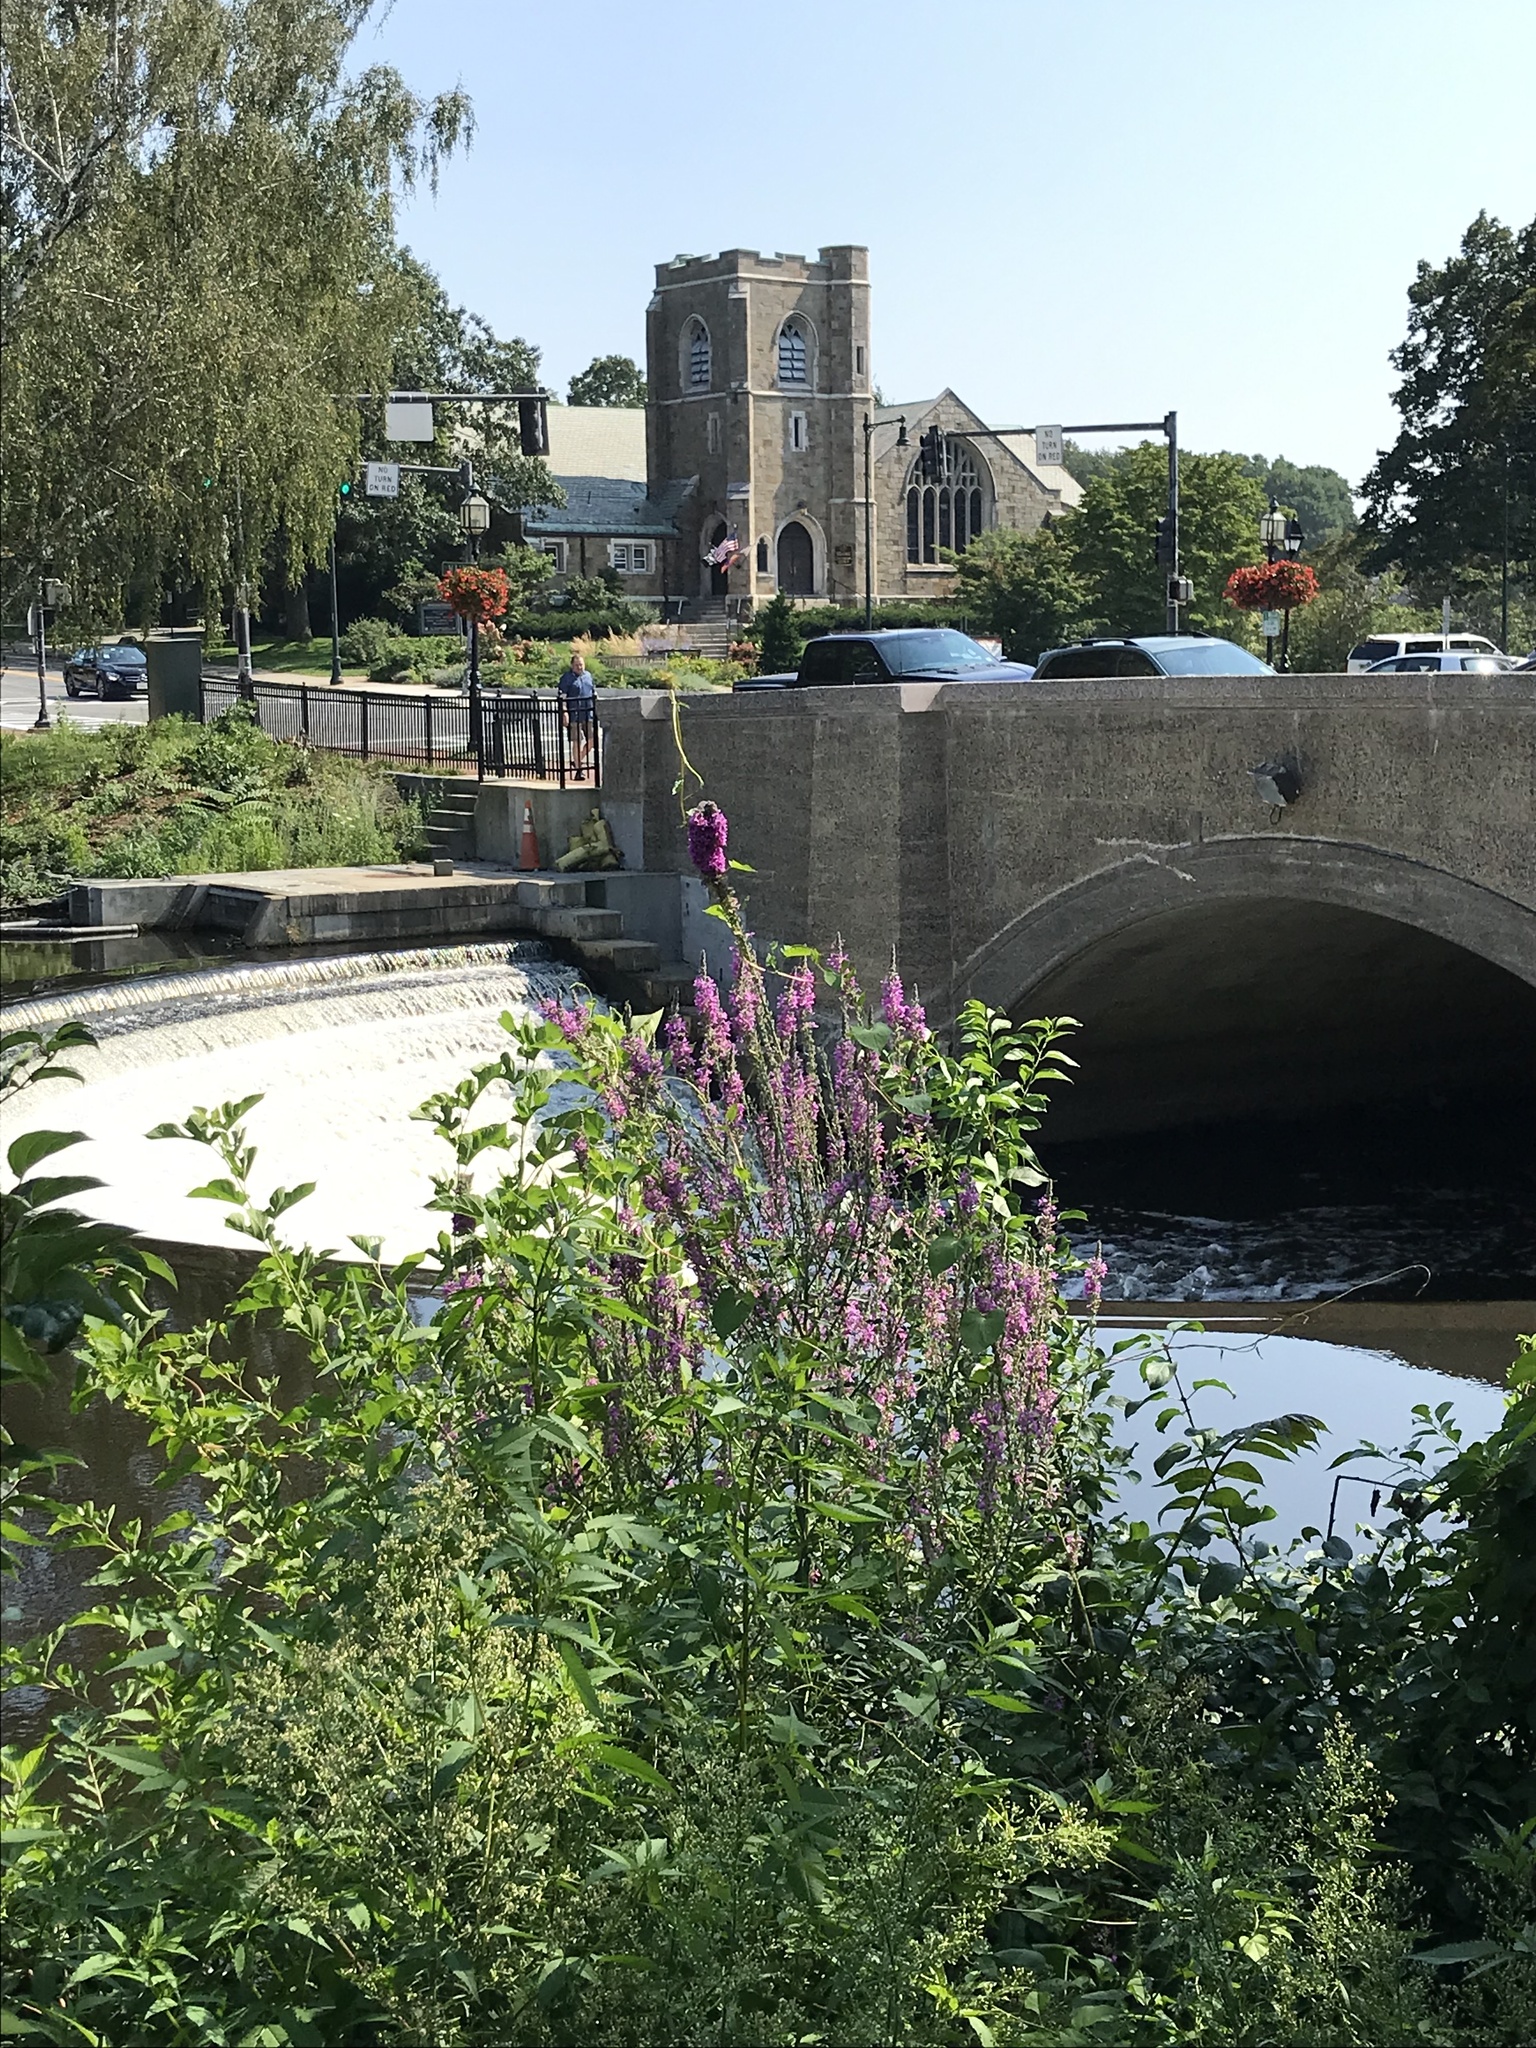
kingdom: Plantae
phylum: Tracheophyta
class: Magnoliopsida
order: Myrtales
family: Lythraceae
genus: Lythrum
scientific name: Lythrum salicaria
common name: Purple loosestrife
